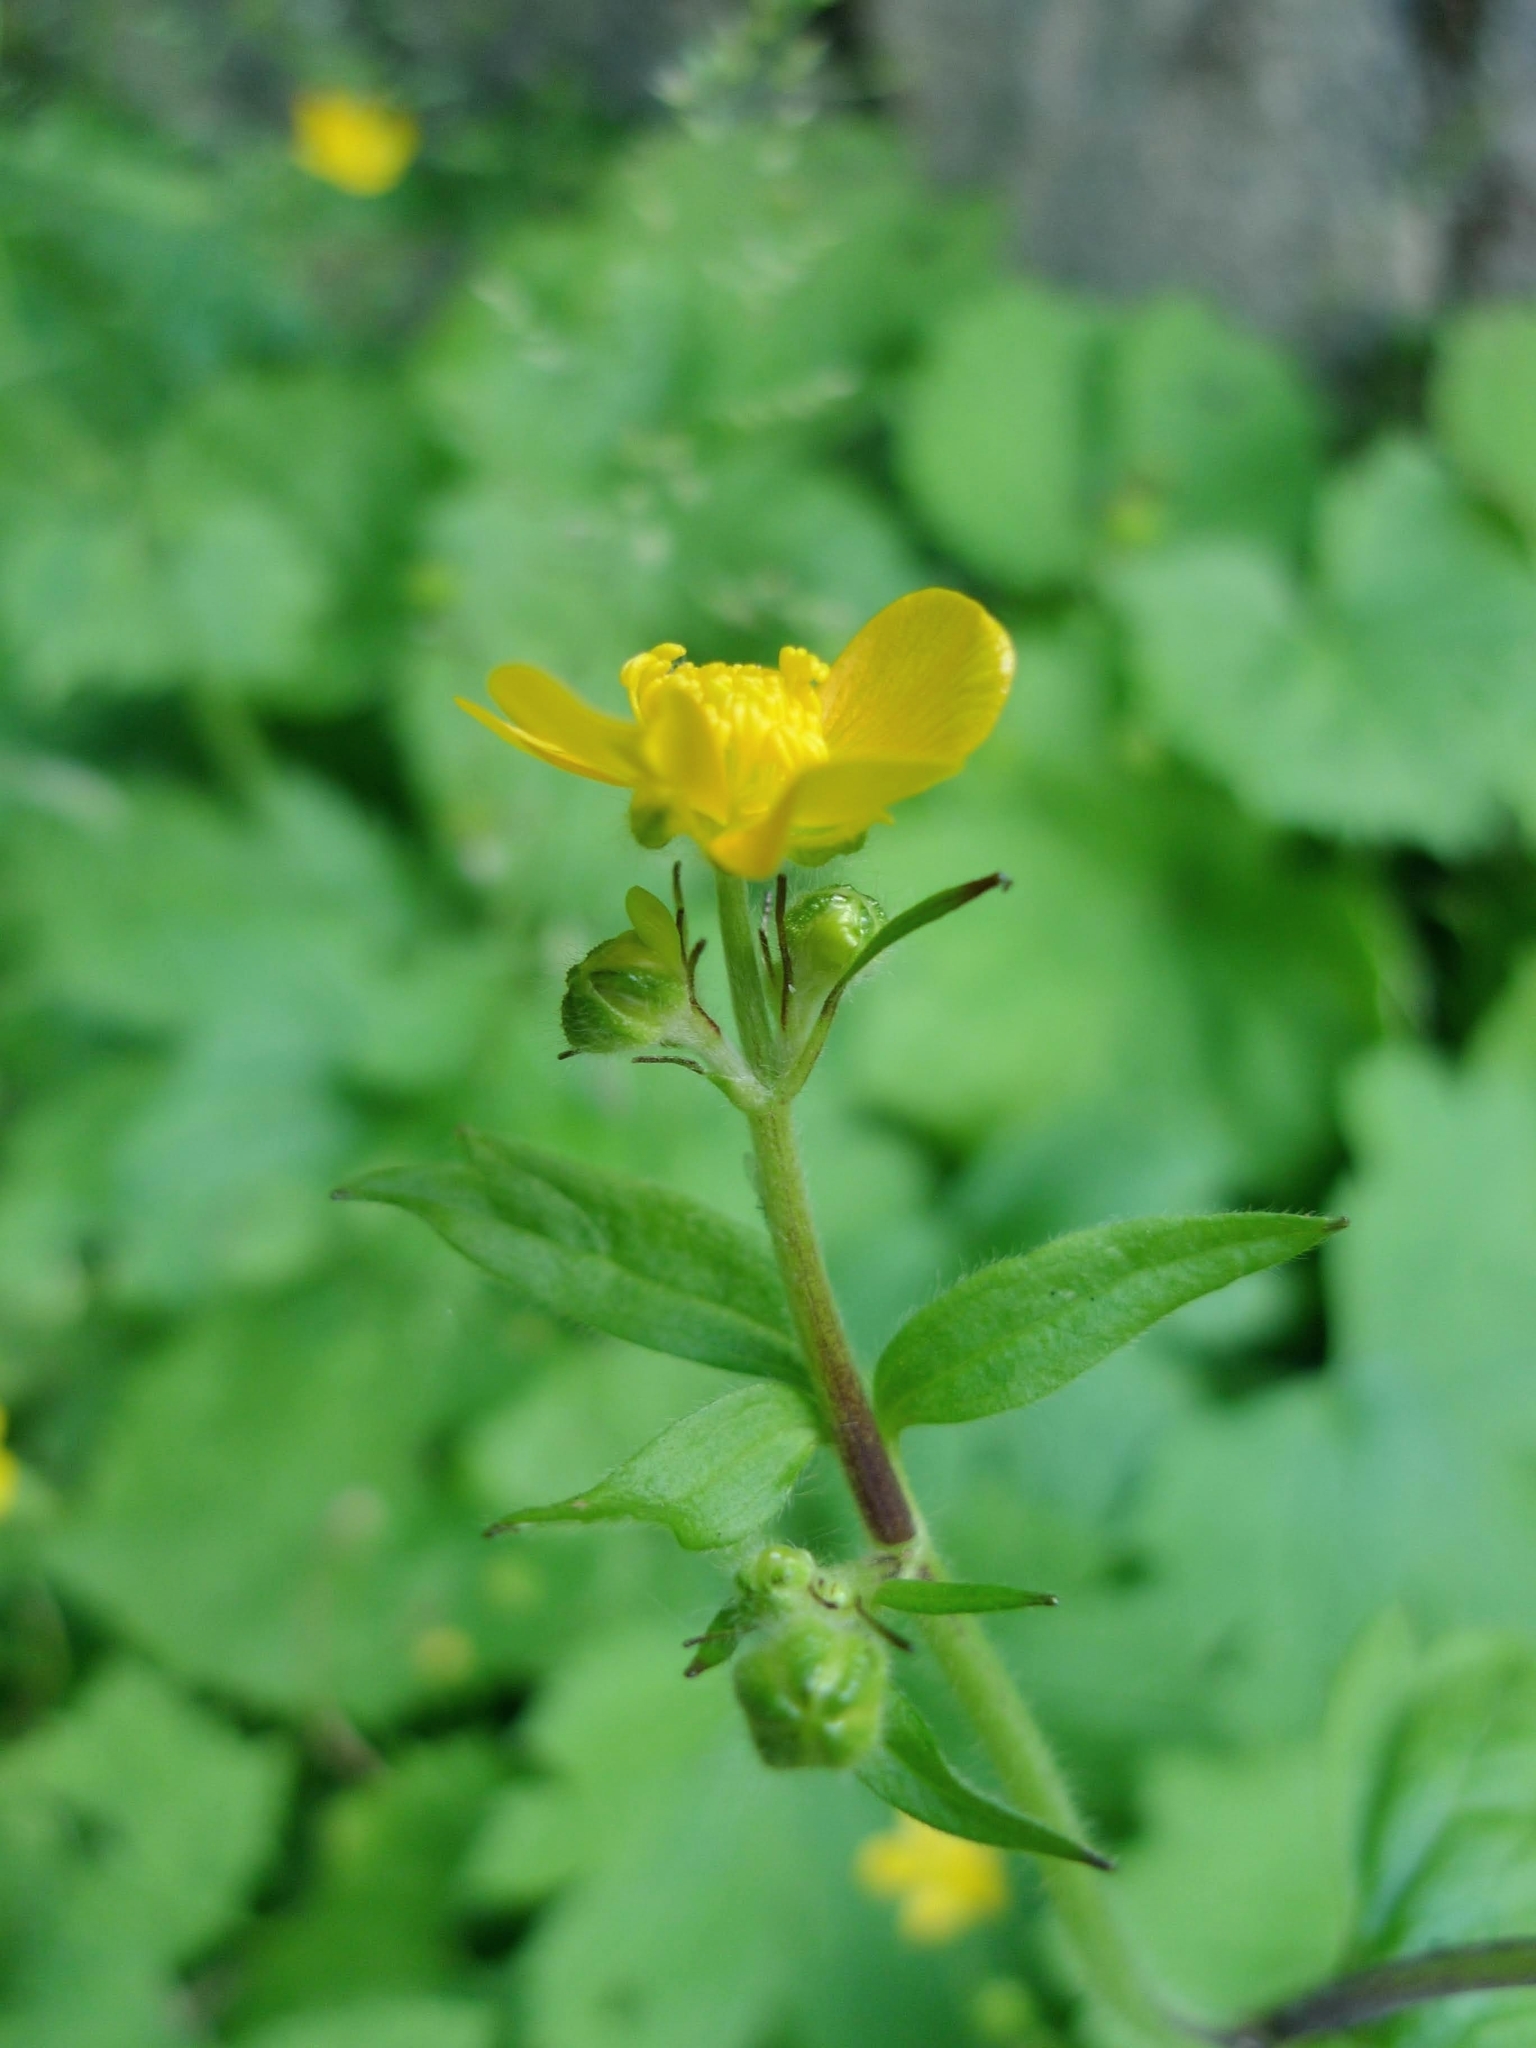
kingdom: Plantae
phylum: Tracheophyta
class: Magnoliopsida
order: Ranunculales
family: Ranunculaceae
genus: Ranunculus
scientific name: Ranunculus lanuginosus
